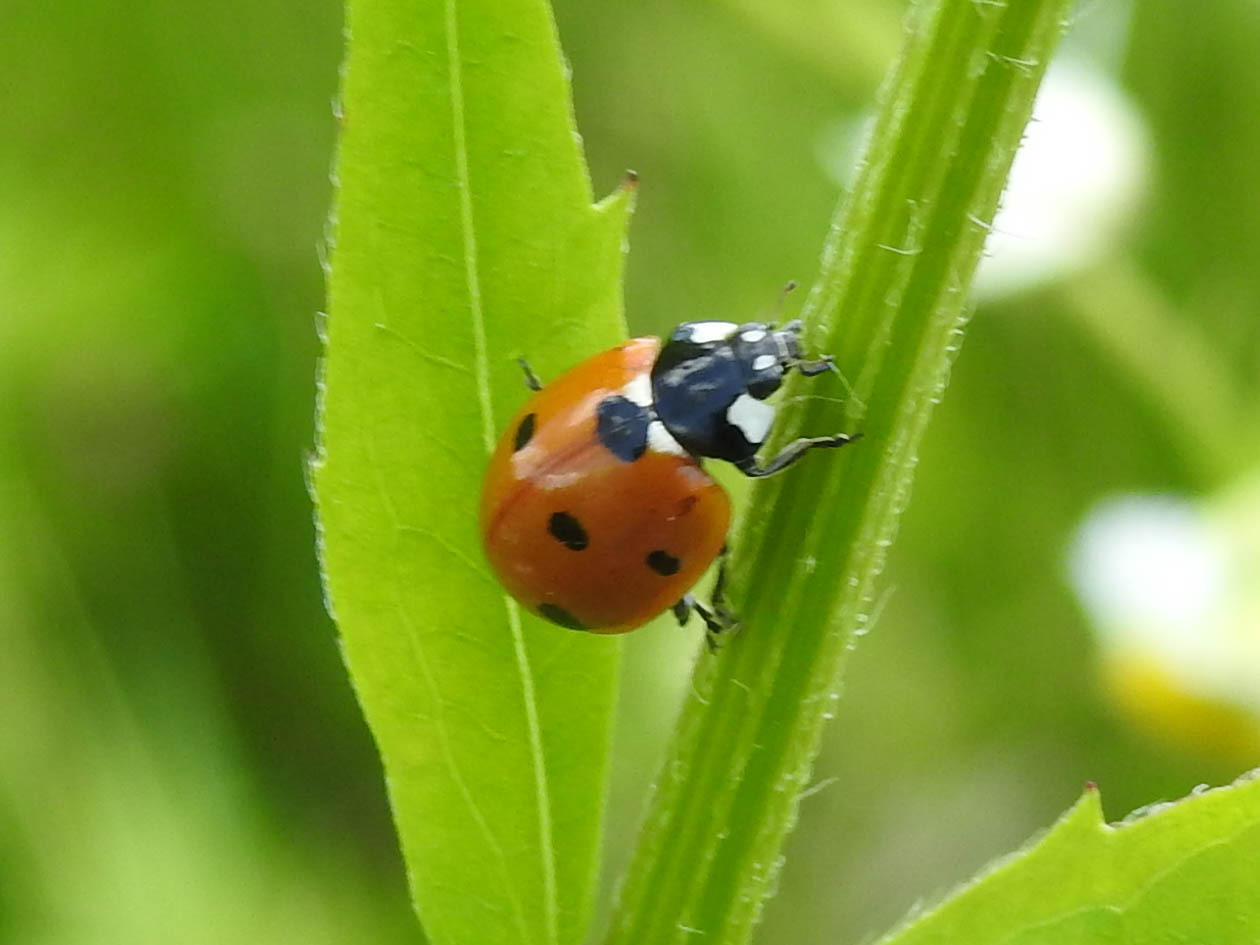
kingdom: Animalia
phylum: Arthropoda
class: Insecta
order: Coleoptera
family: Coccinellidae
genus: Coccinella
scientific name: Coccinella septempunctata
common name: Sevenspotted lady beetle
